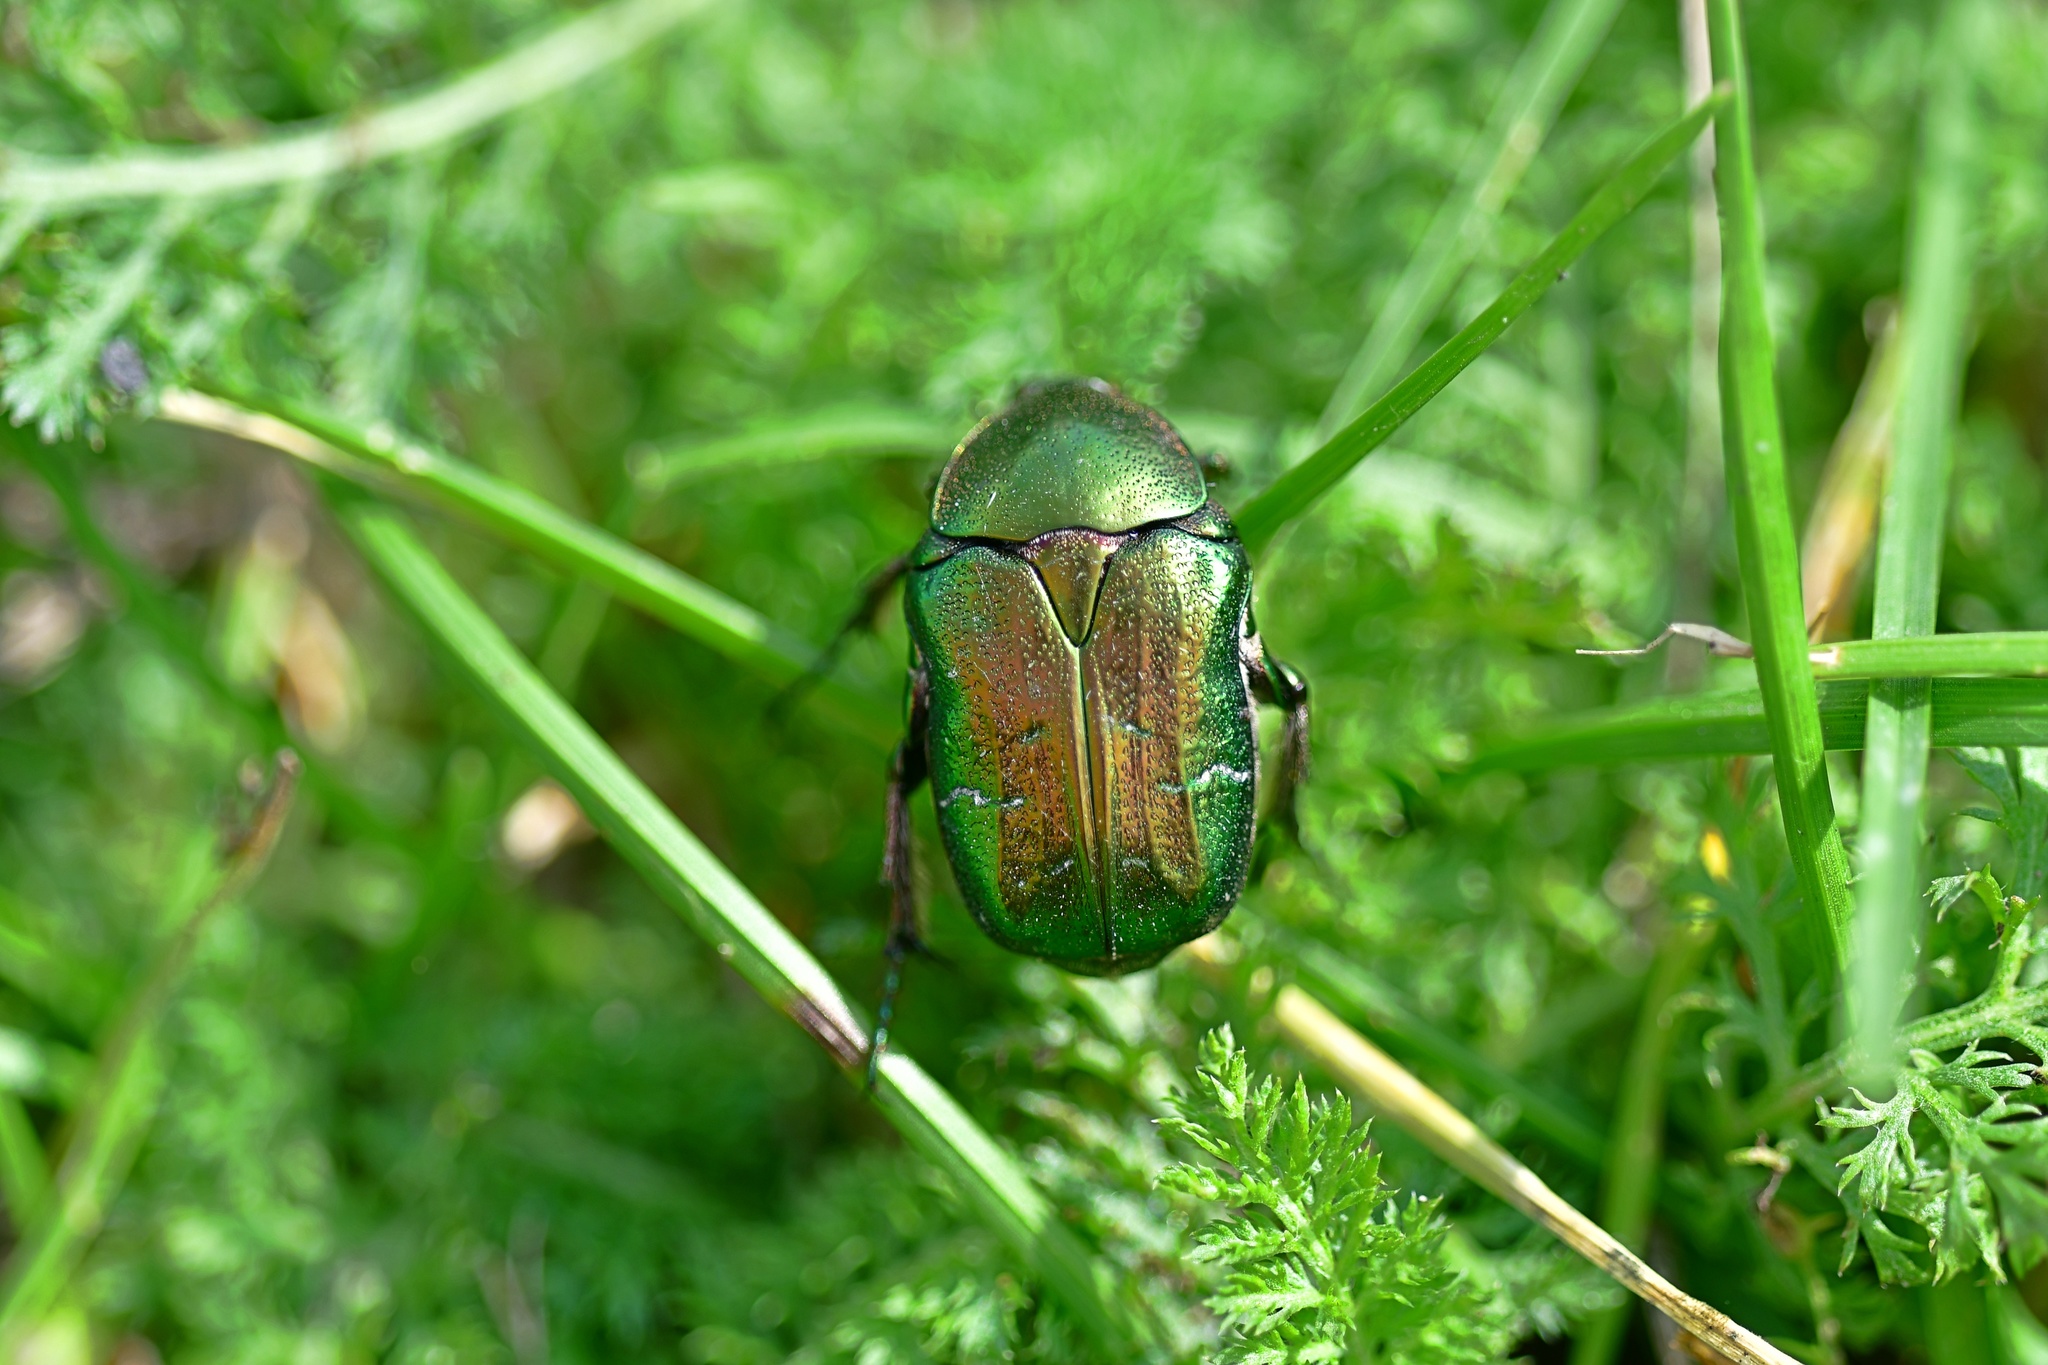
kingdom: Animalia
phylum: Arthropoda
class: Insecta
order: Coleoptera
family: Scarabaeidae
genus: Cetonia
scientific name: Cetonia aurata
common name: Rose chafer
